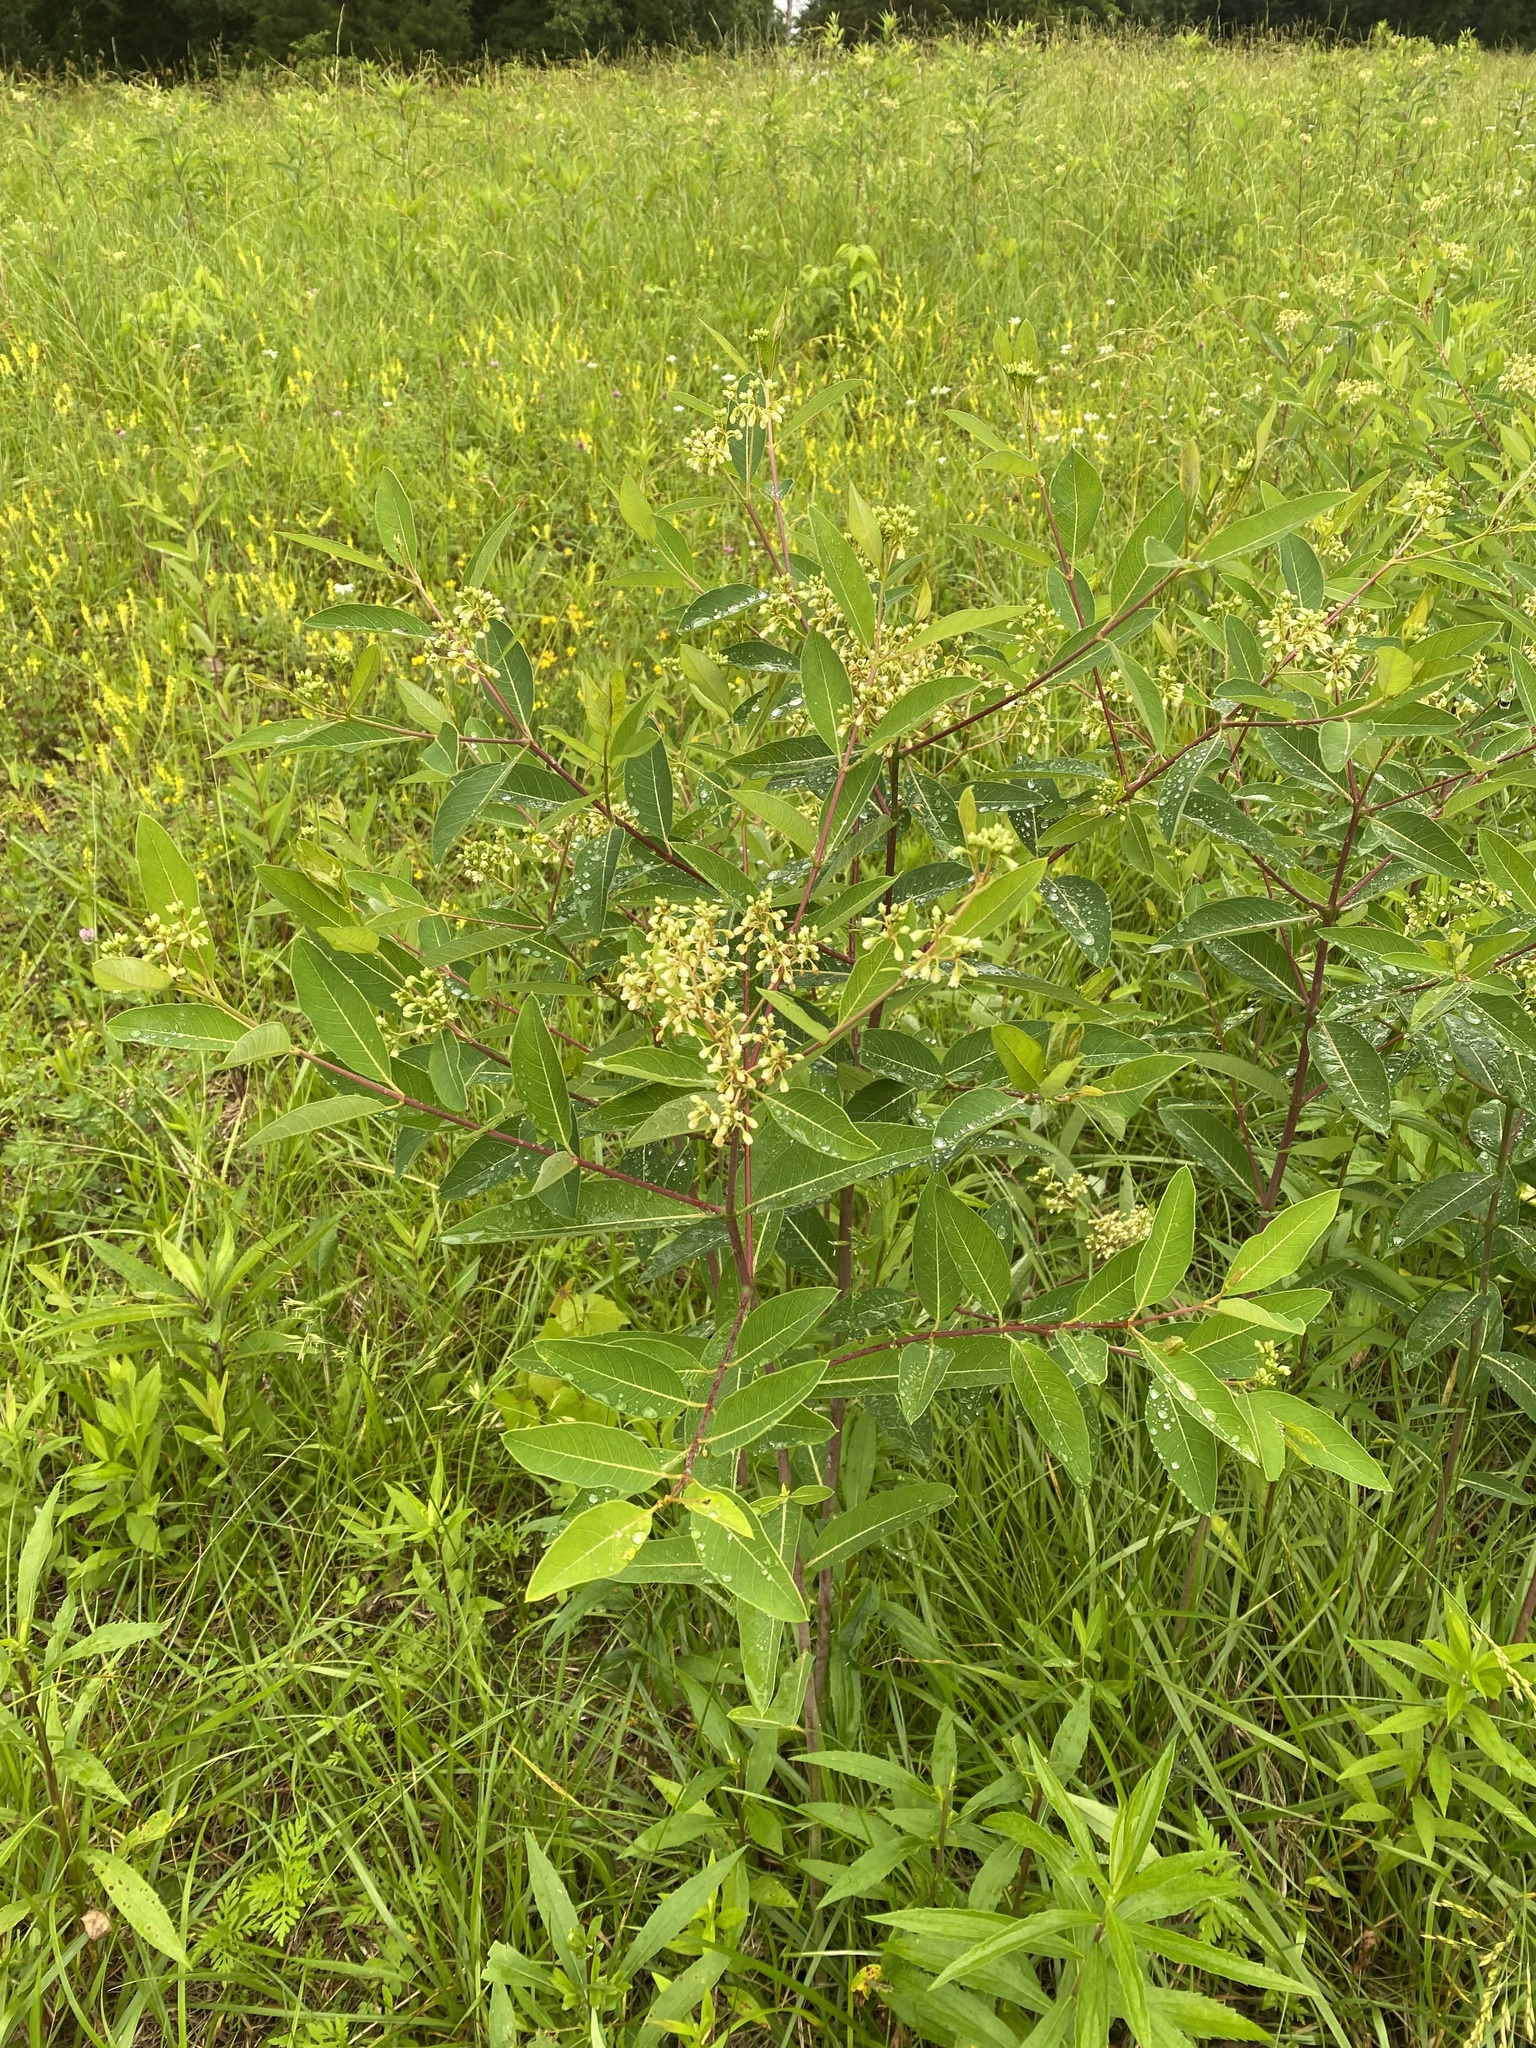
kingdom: Plantae
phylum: Tracheophyta
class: Magnoliopsida
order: Gentianales
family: Apocynaceae
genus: Apocynum
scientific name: Apocynum cannabinum
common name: Hemp dogbane
